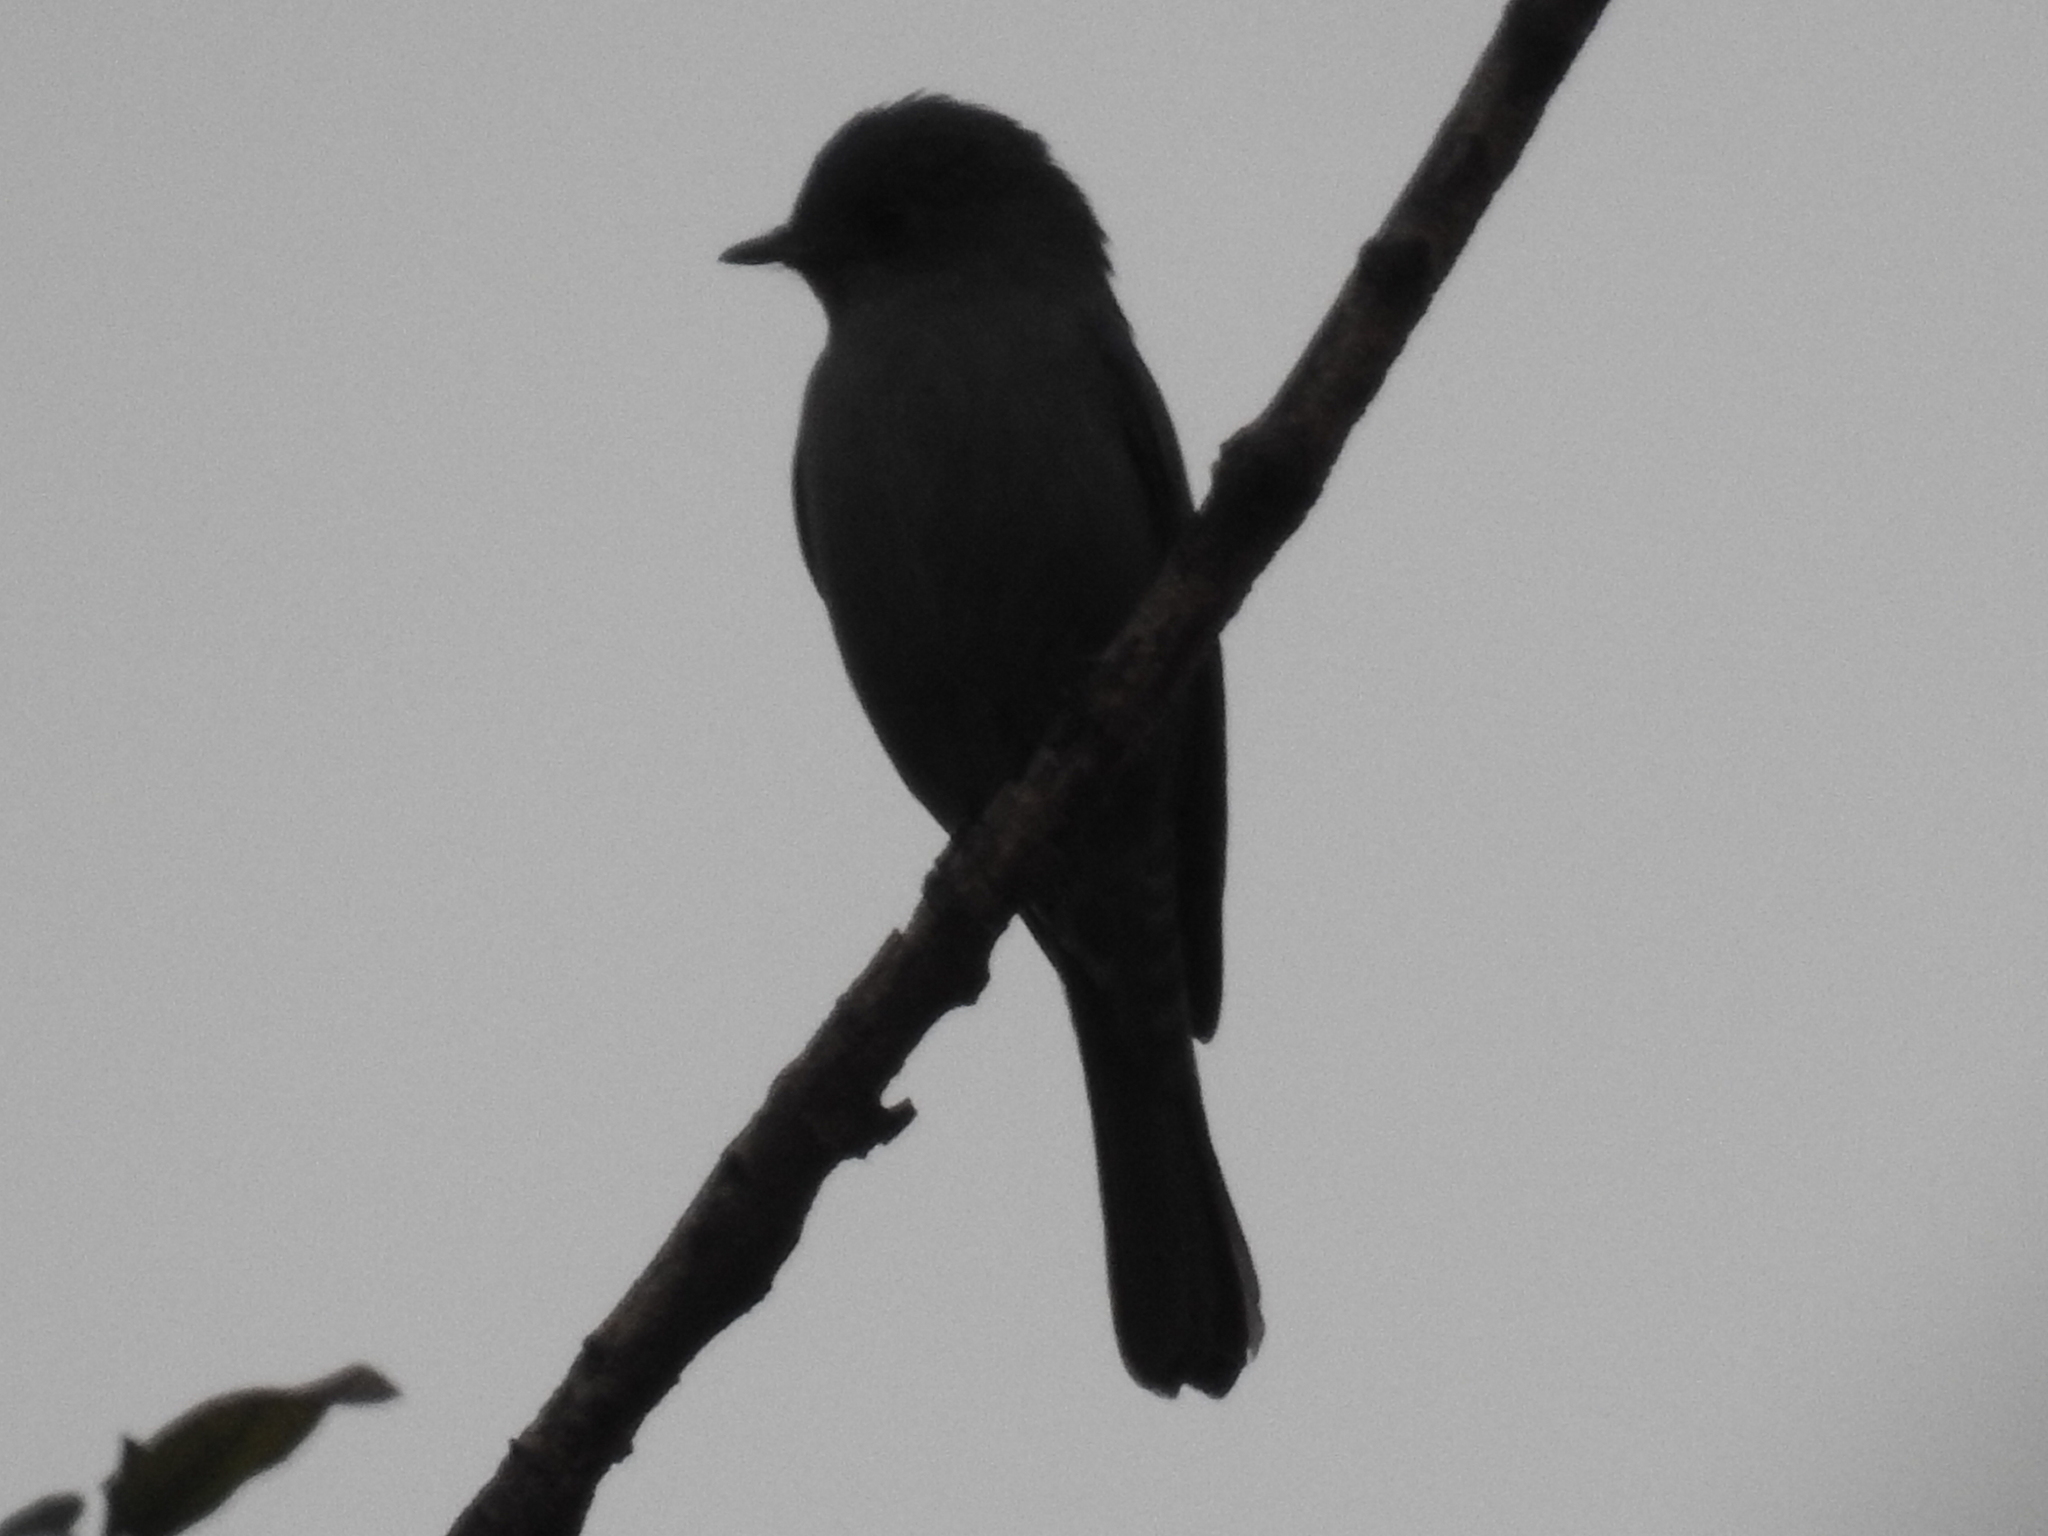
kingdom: Animalia
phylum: Chordata
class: Aves
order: Passeriformes
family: Muscicapidae
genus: Eumyias
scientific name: Eumyias thalassinus
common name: Verditer flycatcher
